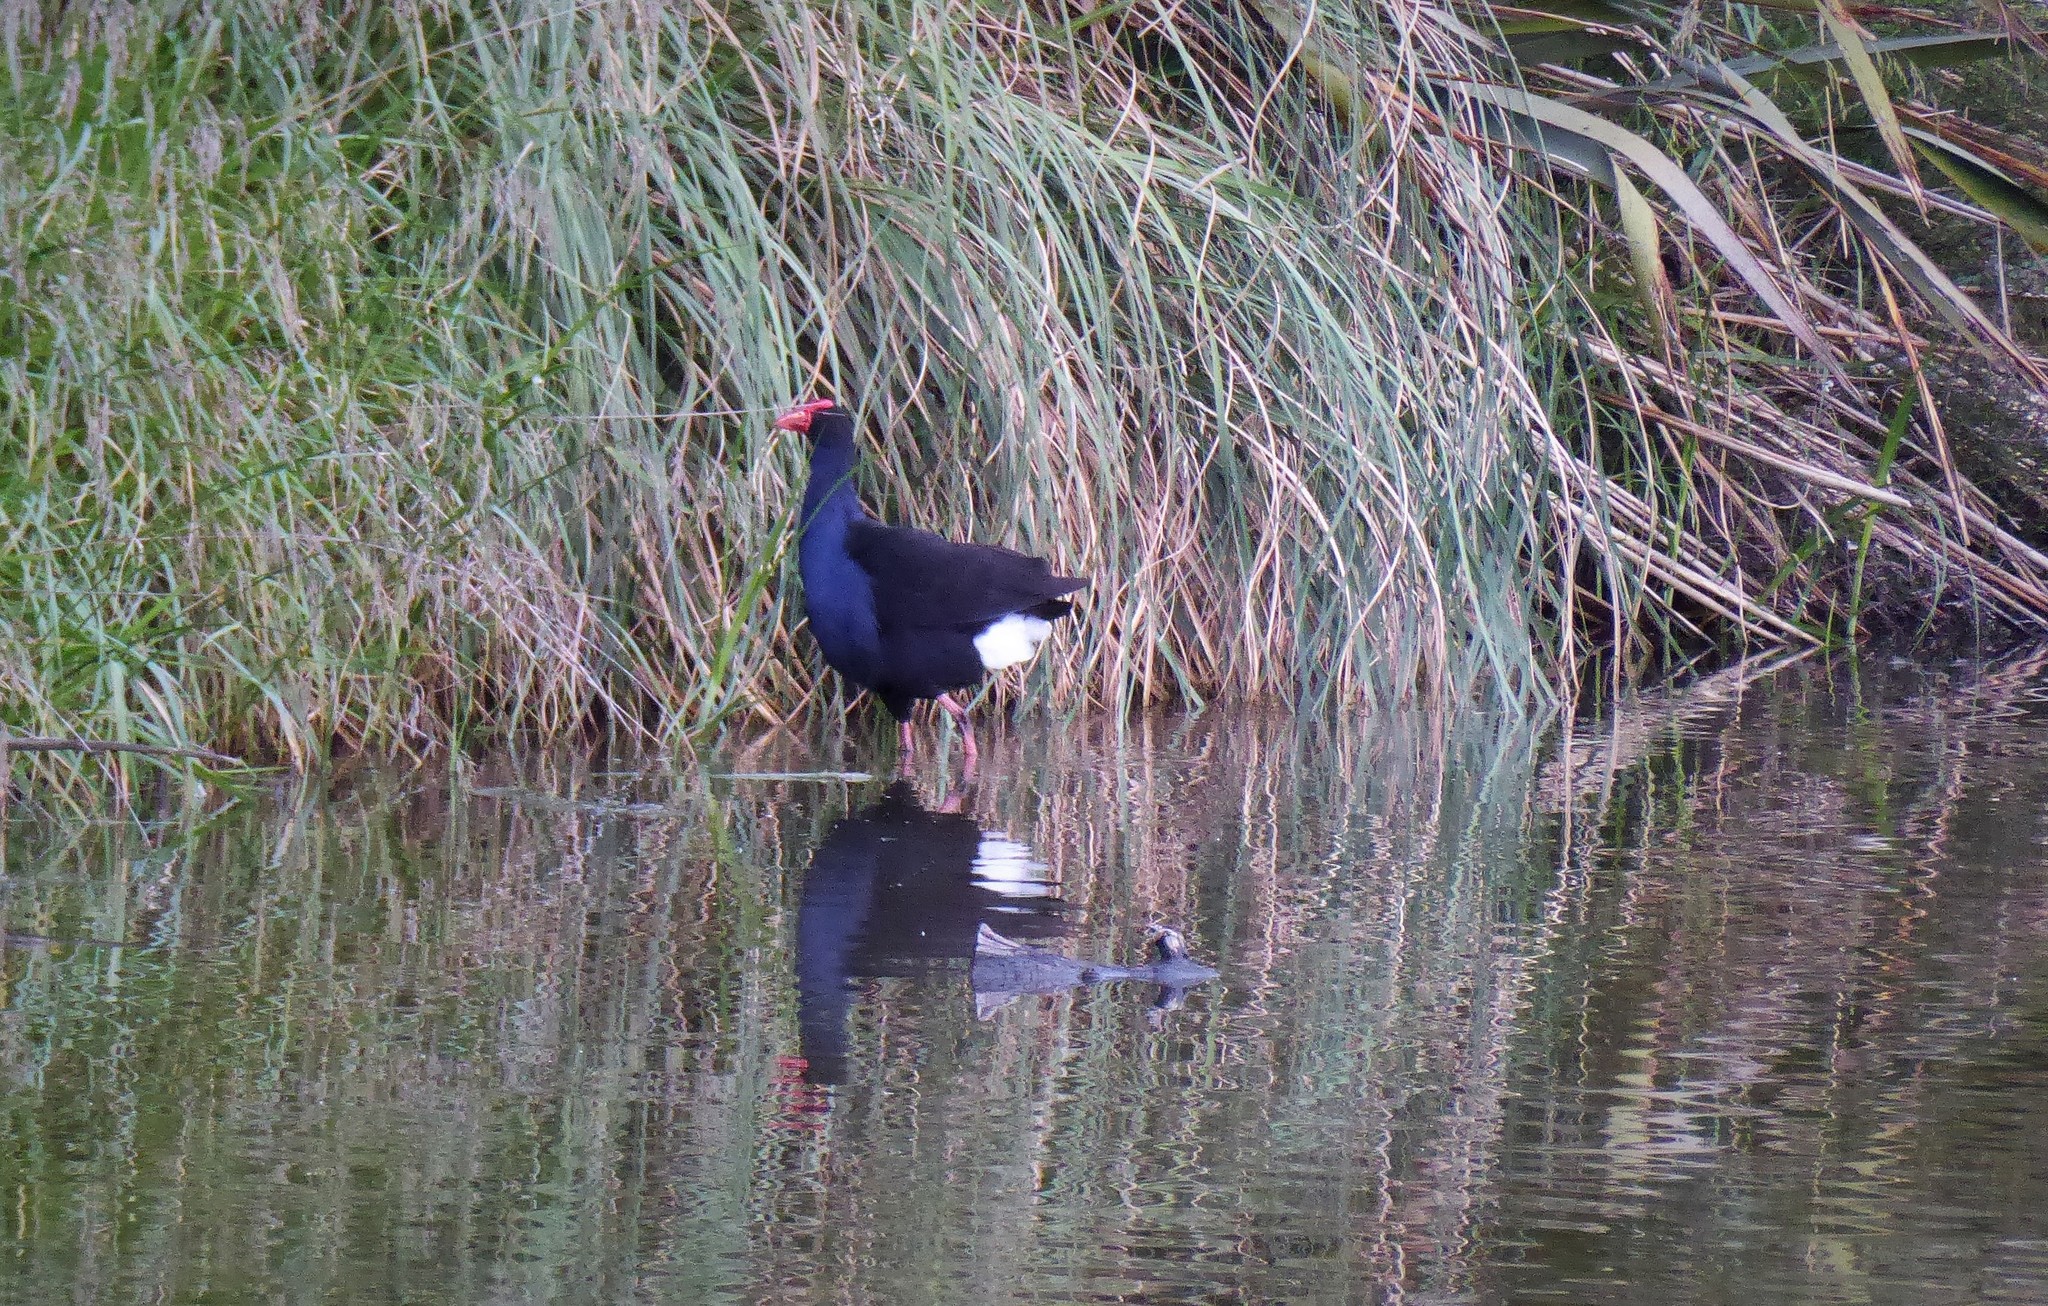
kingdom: Animalia
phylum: Chordata
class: Aves
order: Gruiformes
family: Rallidae
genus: Porphyrio
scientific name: Porphyrio melanotus
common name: Australasian swamphen
